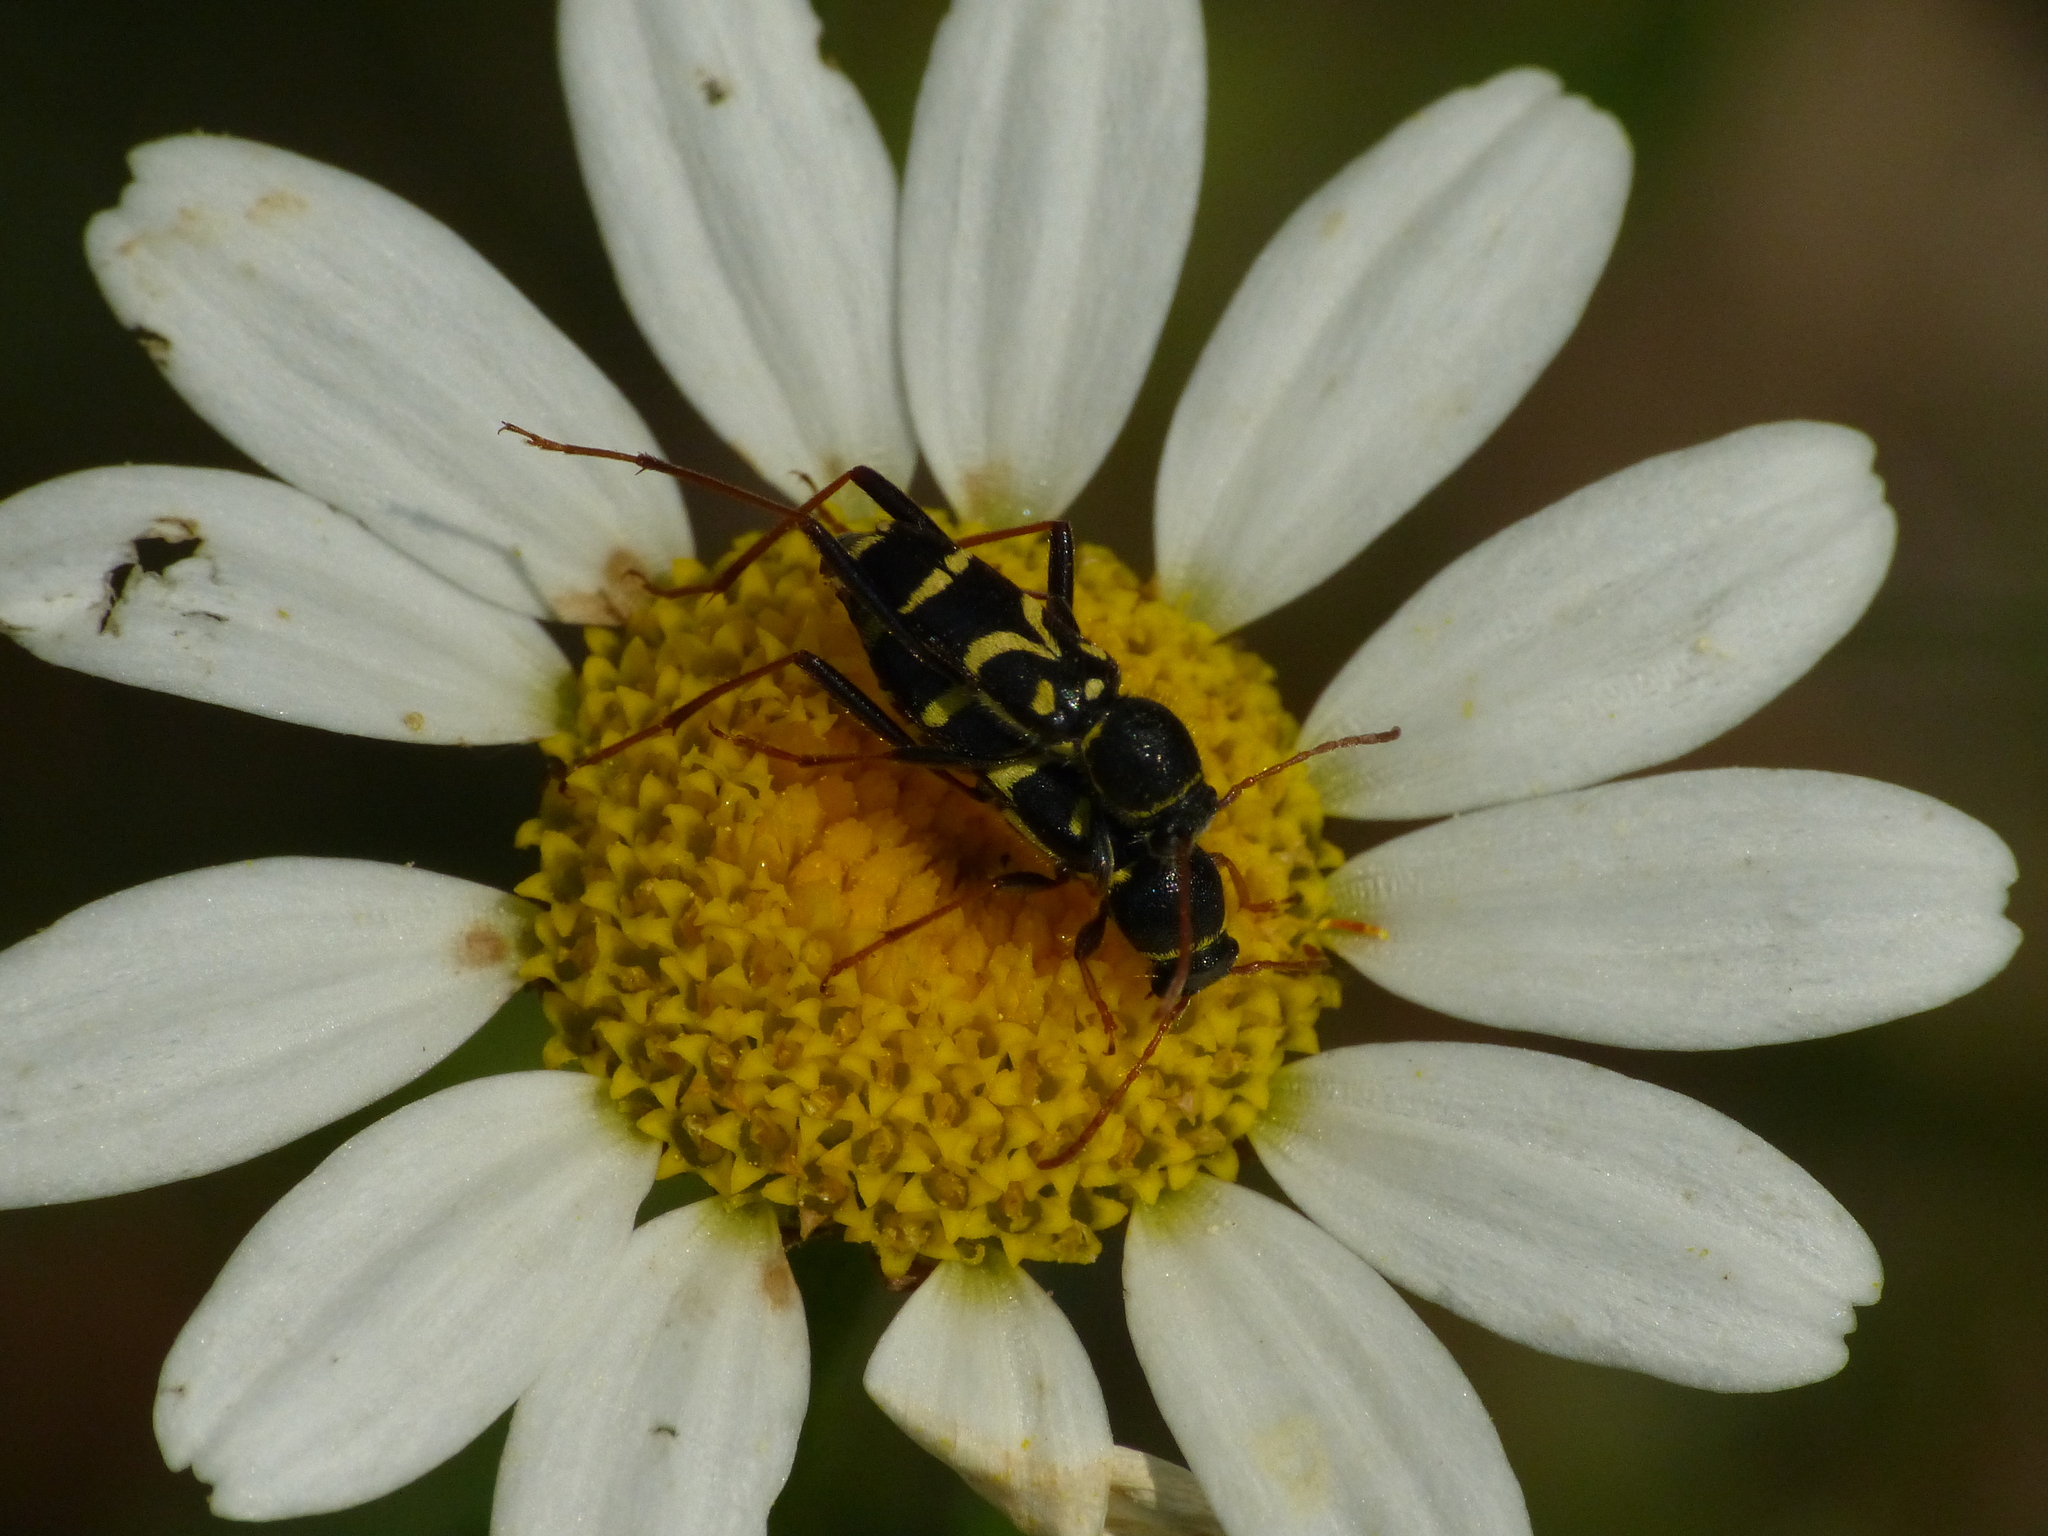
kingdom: Animalia
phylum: Arthropoda
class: Insecta
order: Coleoptera
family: Cerambycidae
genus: Clytus
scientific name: Clytus rhamni
